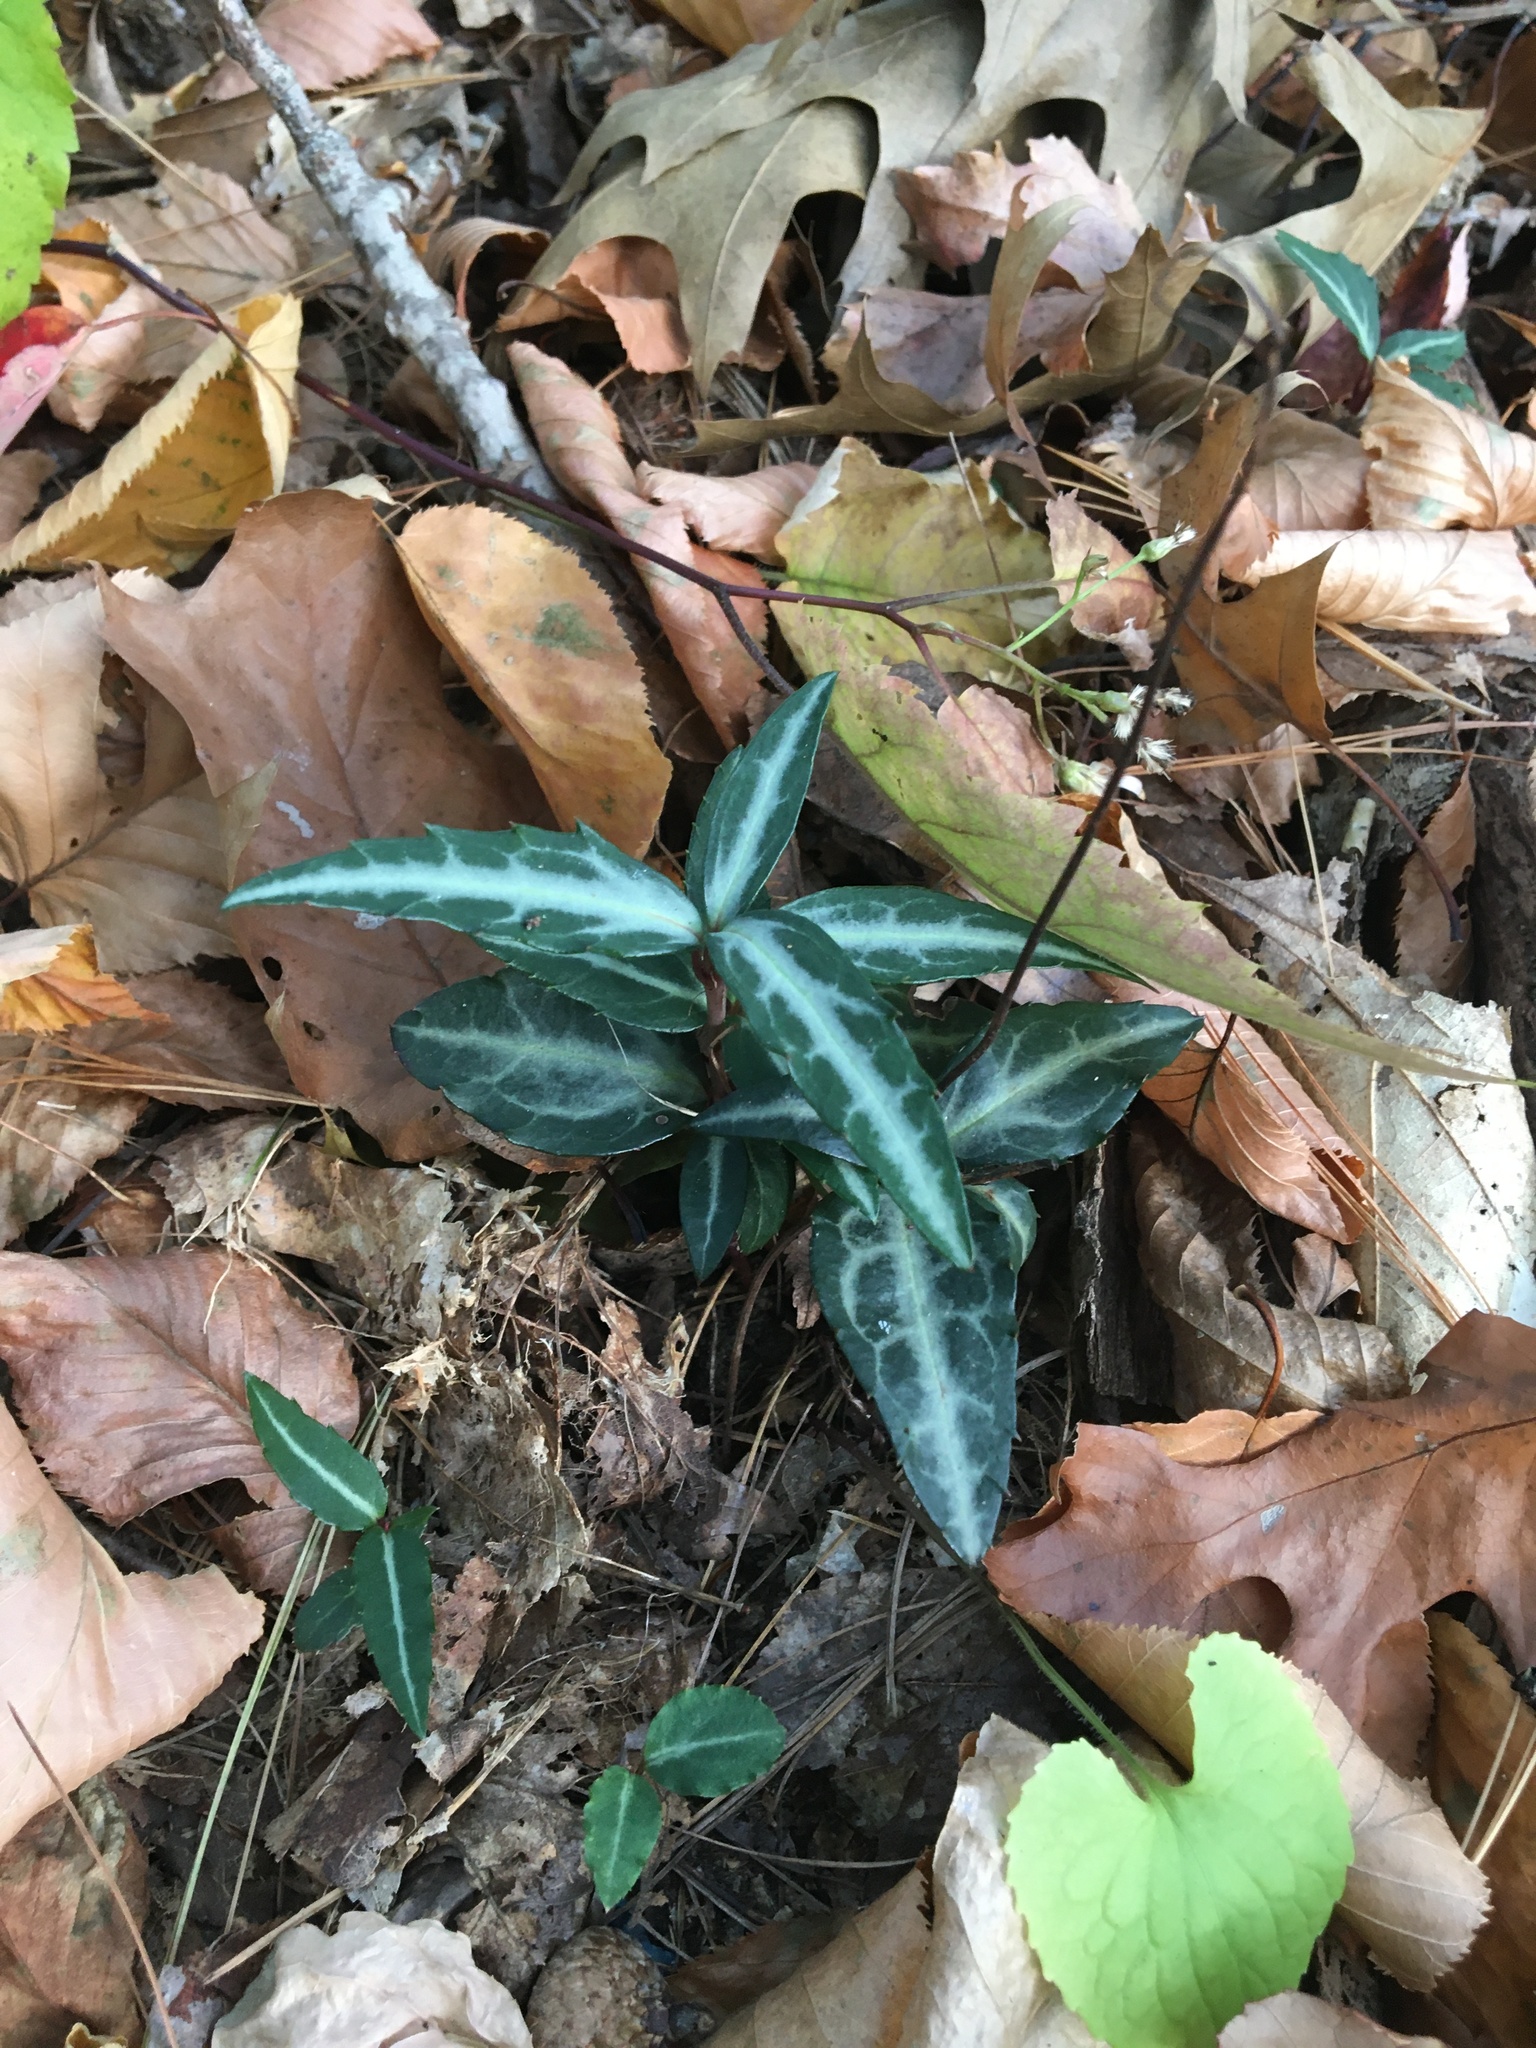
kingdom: Plantae
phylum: Tracheophyta
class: Magnoliopsida
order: Ericales
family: Ericaceae
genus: Chimaphila
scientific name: Chimaphila maculata
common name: Spotted pipsissewa
